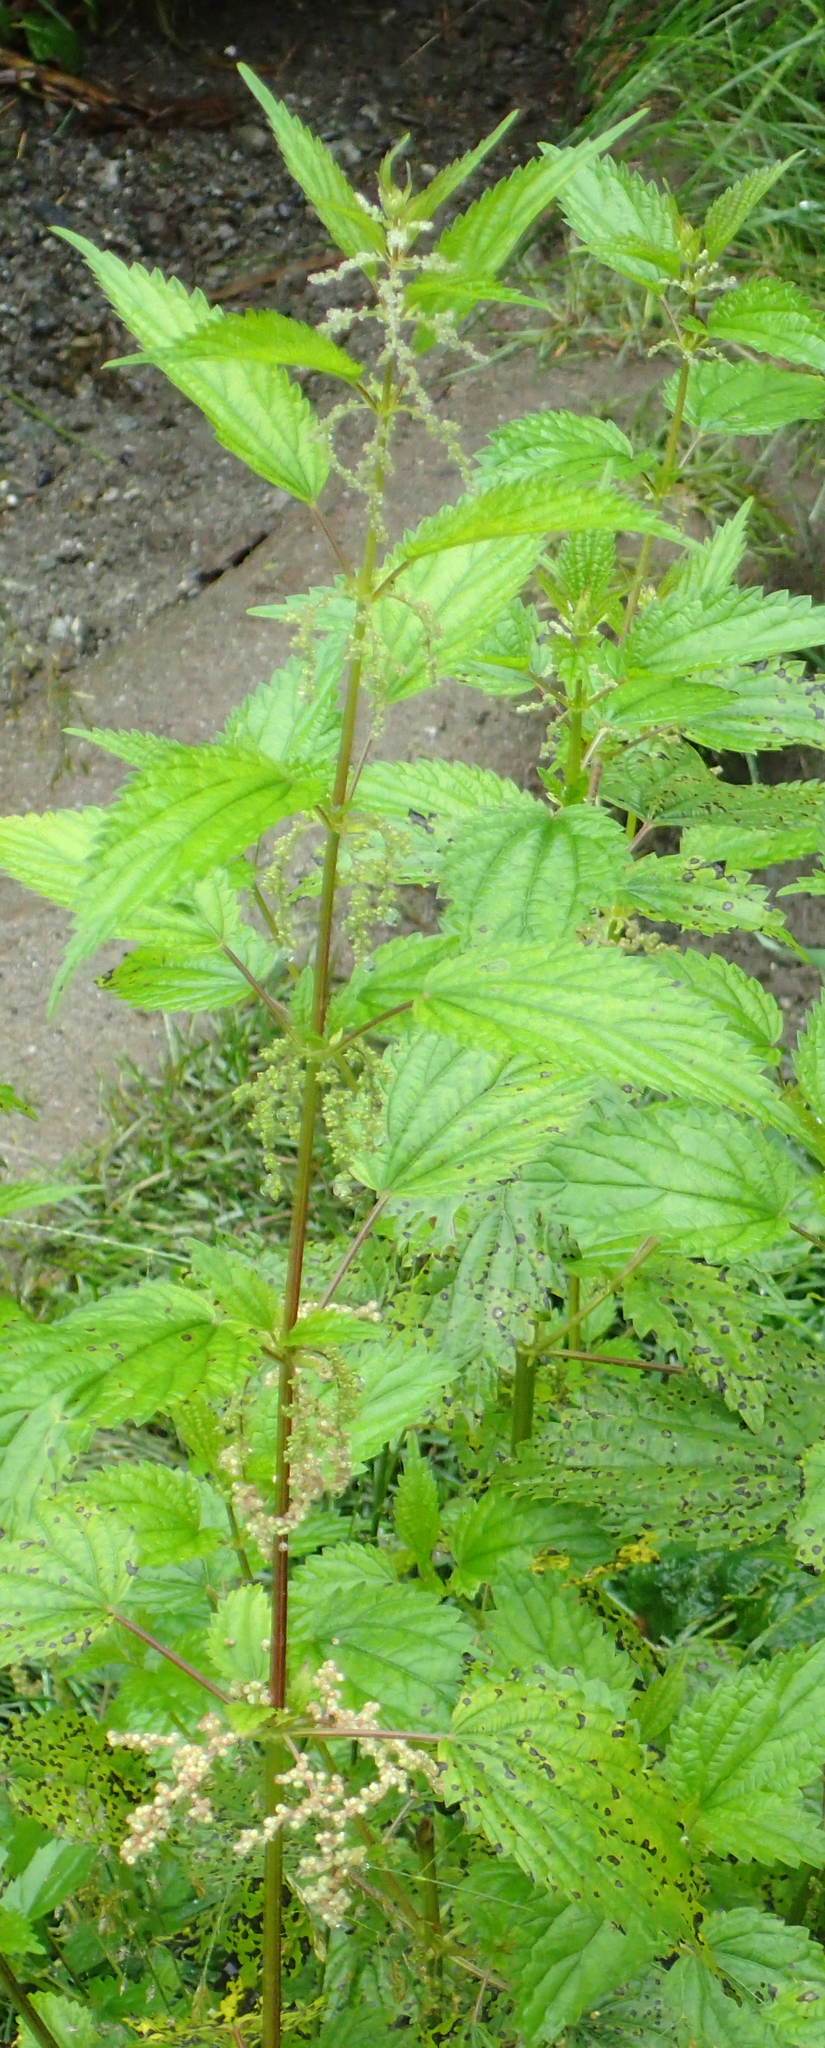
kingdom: Plantae
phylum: Tracheophyta
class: Magnoliopsida
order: Rosales
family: Urticaceae
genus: Urtica
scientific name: Urtica dioica
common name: Common nettle
